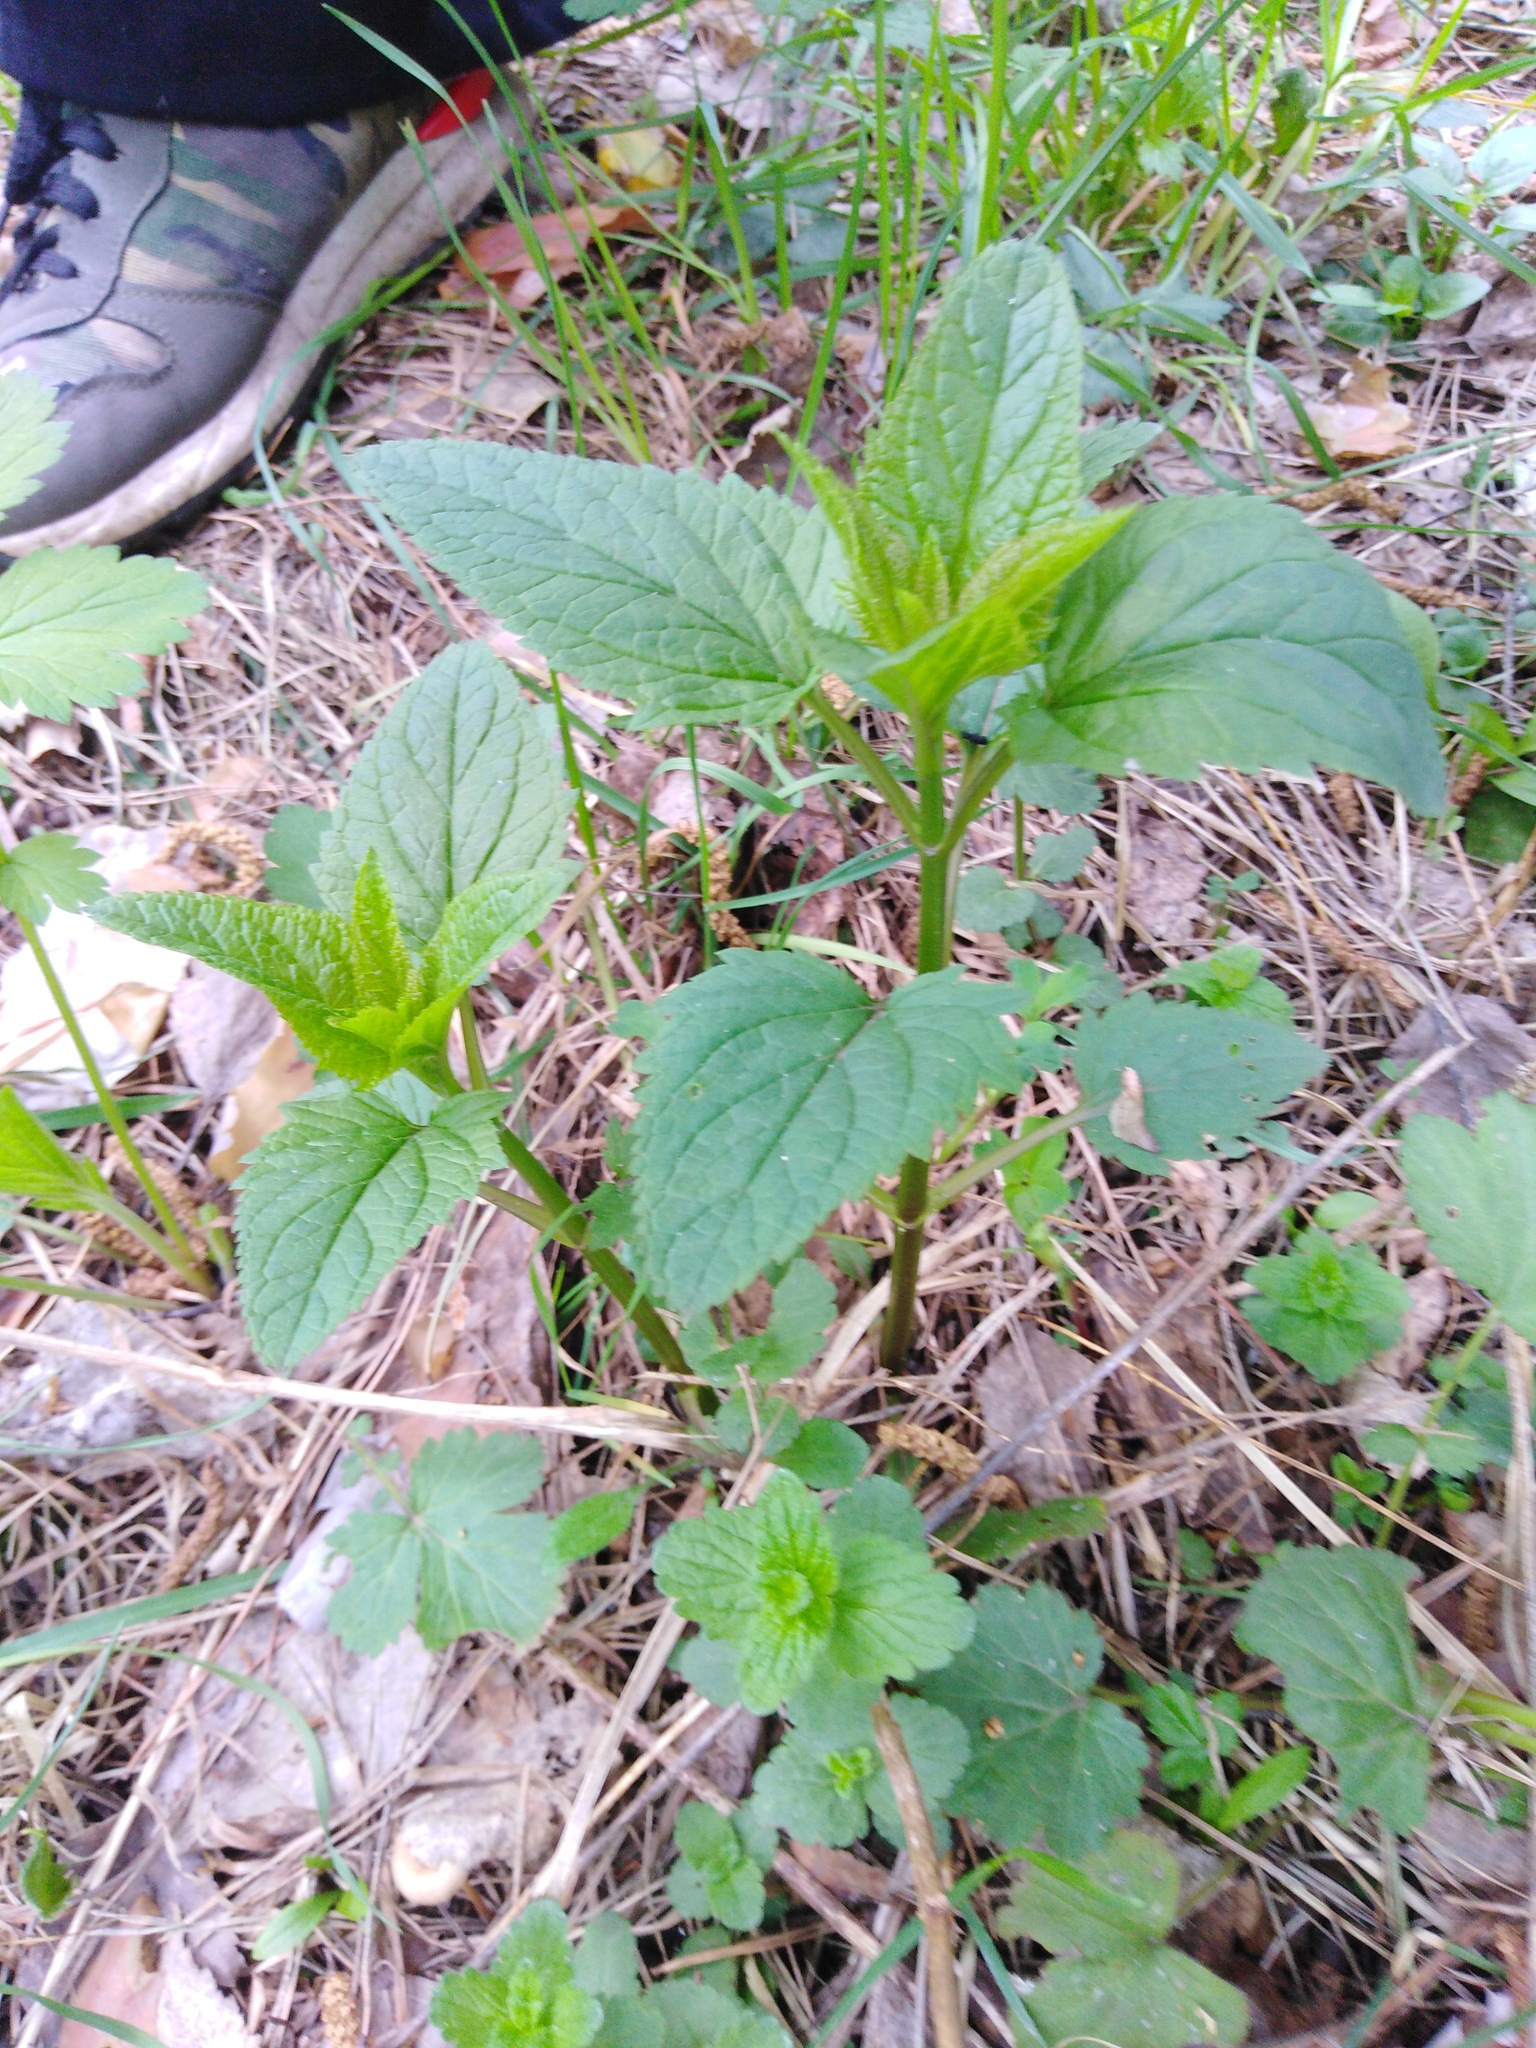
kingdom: Plantae
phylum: Tracheophyta
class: Magnoliopsida
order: Lamiales
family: Scrophulariaceae
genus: Scrophularia
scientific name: Scrophularia nodosa
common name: Common figwort
